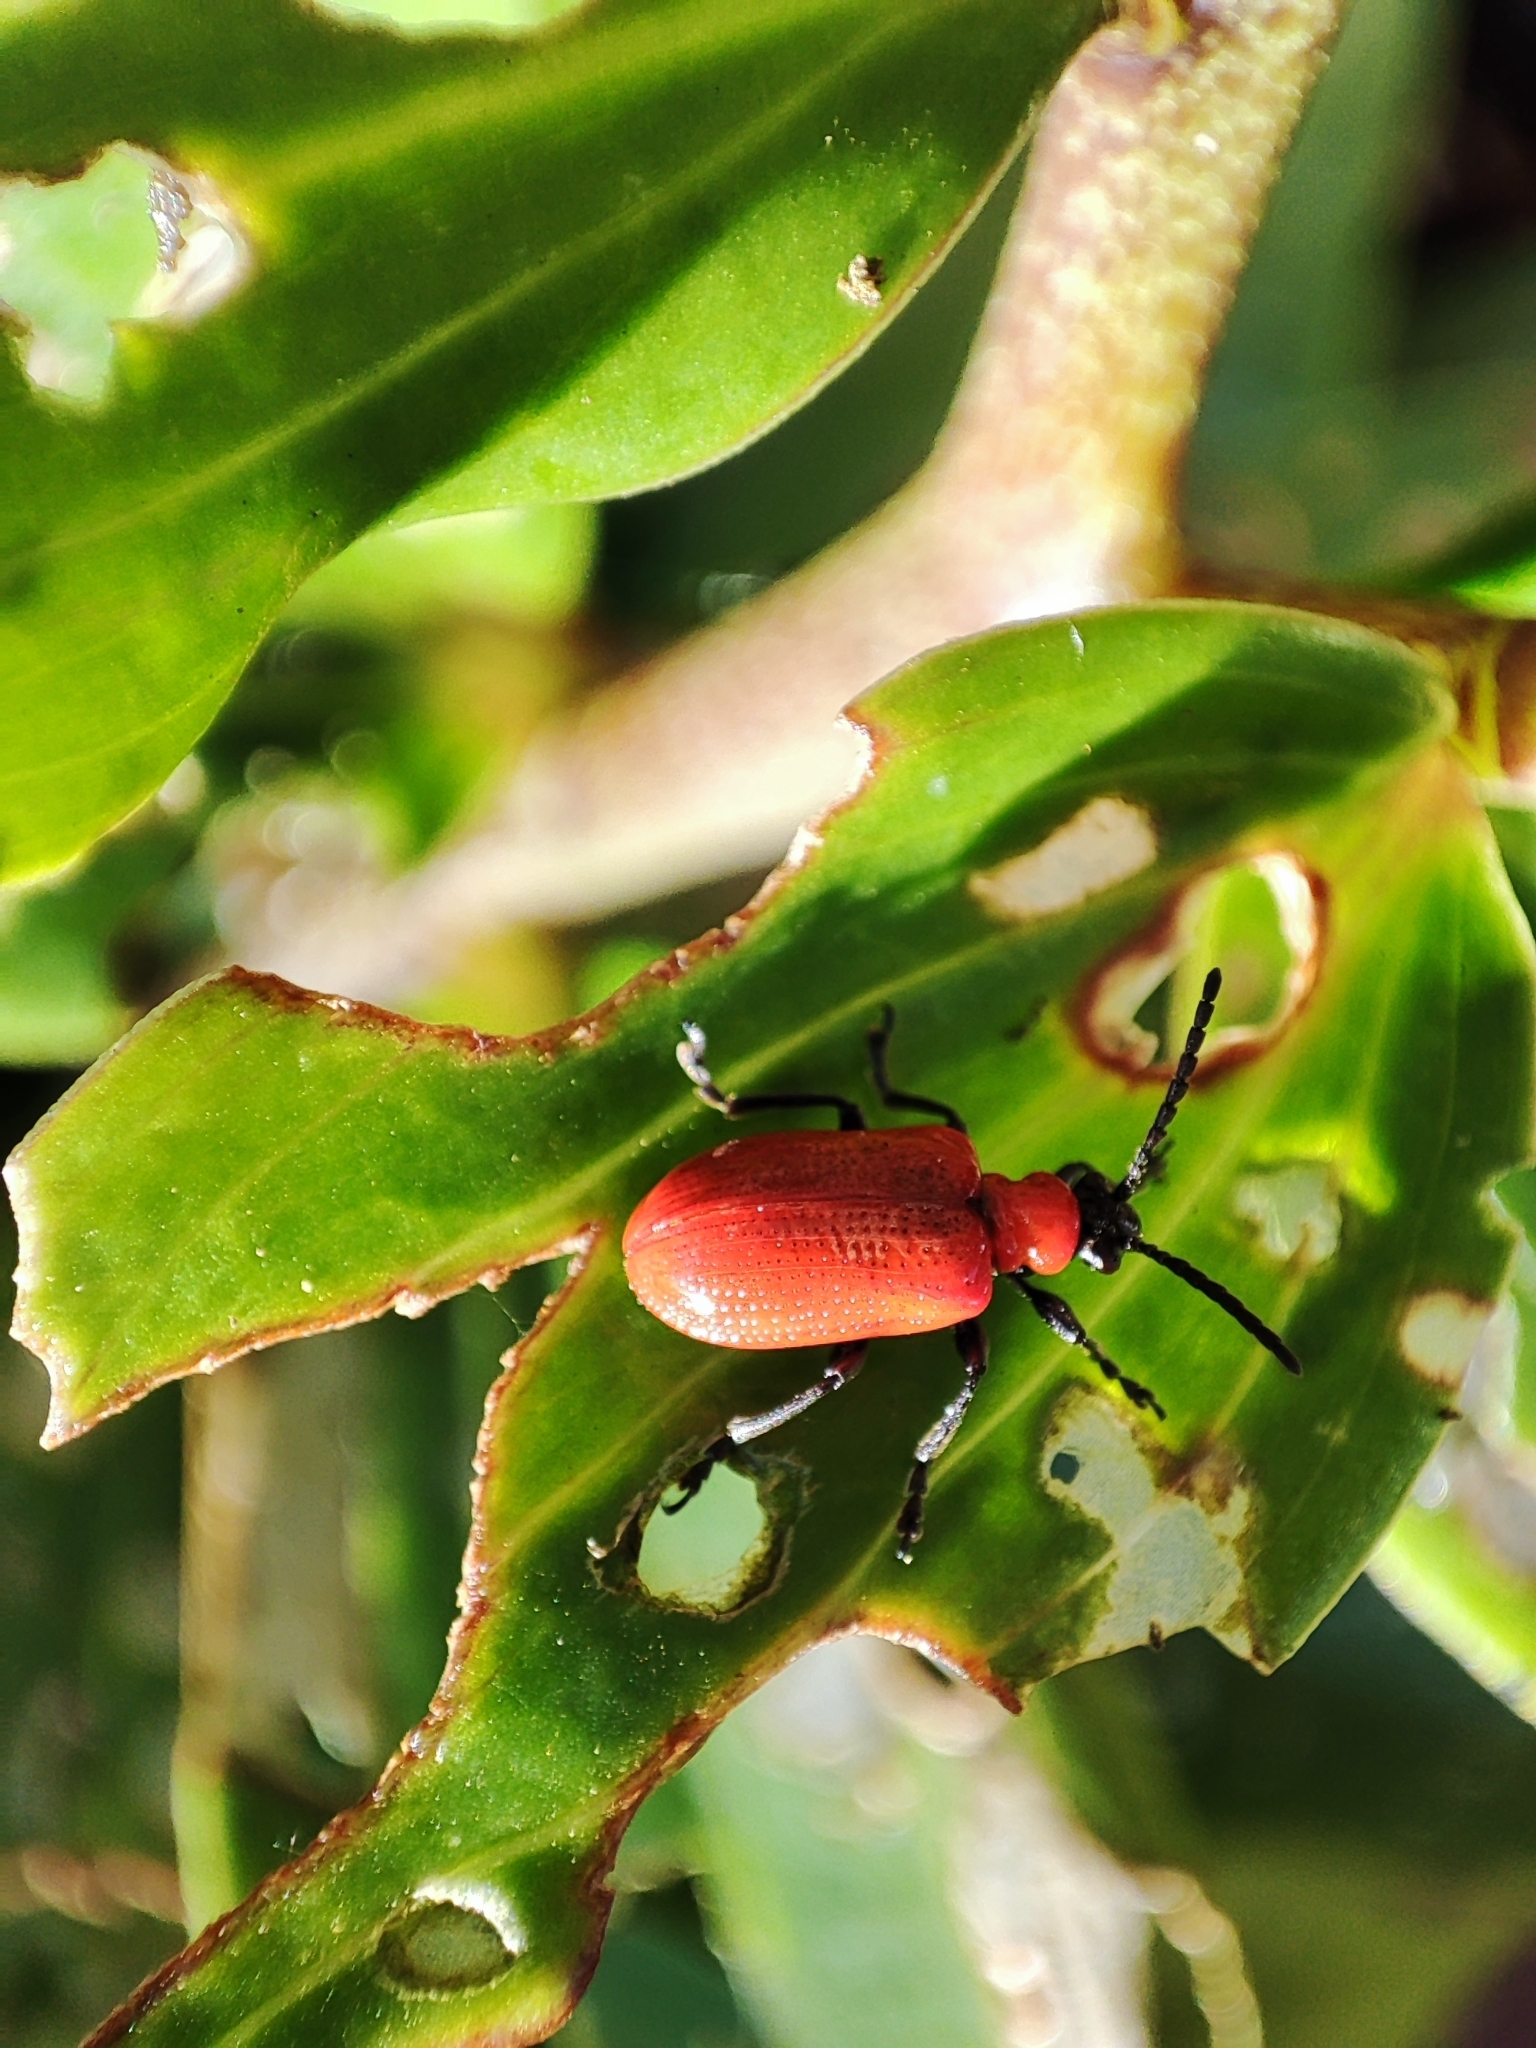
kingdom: Animalia
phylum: Arthropoda
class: Insecta
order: Coleoptera
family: Chrysomelidae
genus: Lilioceris
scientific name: Lilioceris lilii
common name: Lily beetle
